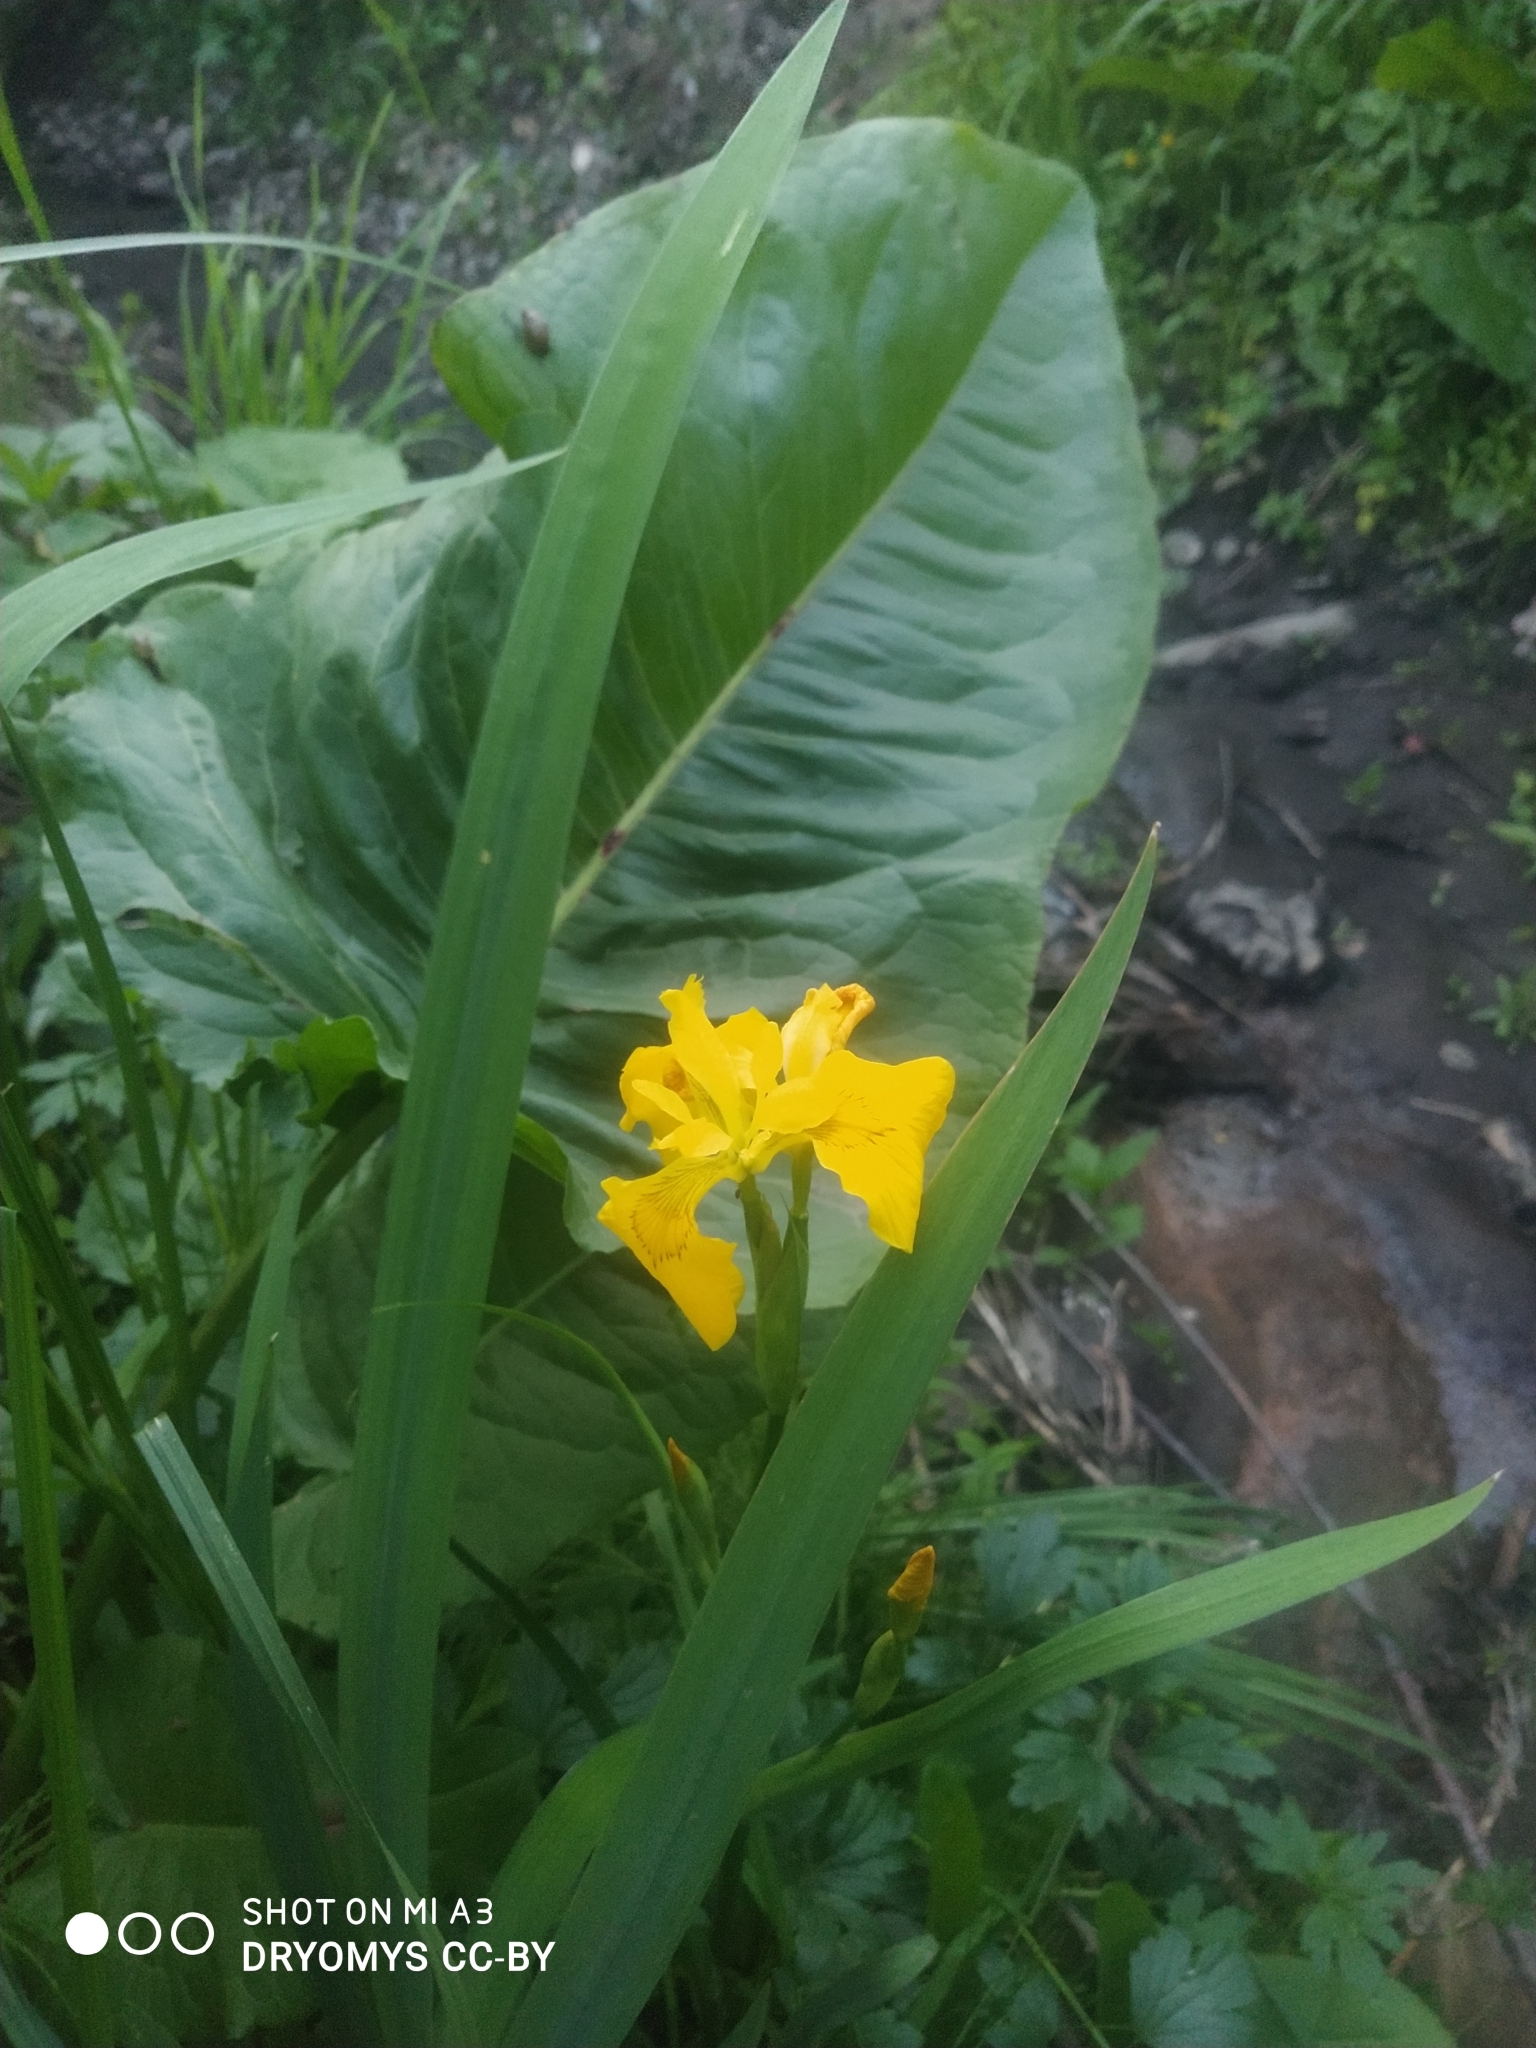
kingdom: Plantae
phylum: Tracheophyta
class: Liliopsida
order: Asparagales
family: Iridaceae
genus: Iris
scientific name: Iris pseudacorus
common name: Yellow flag
